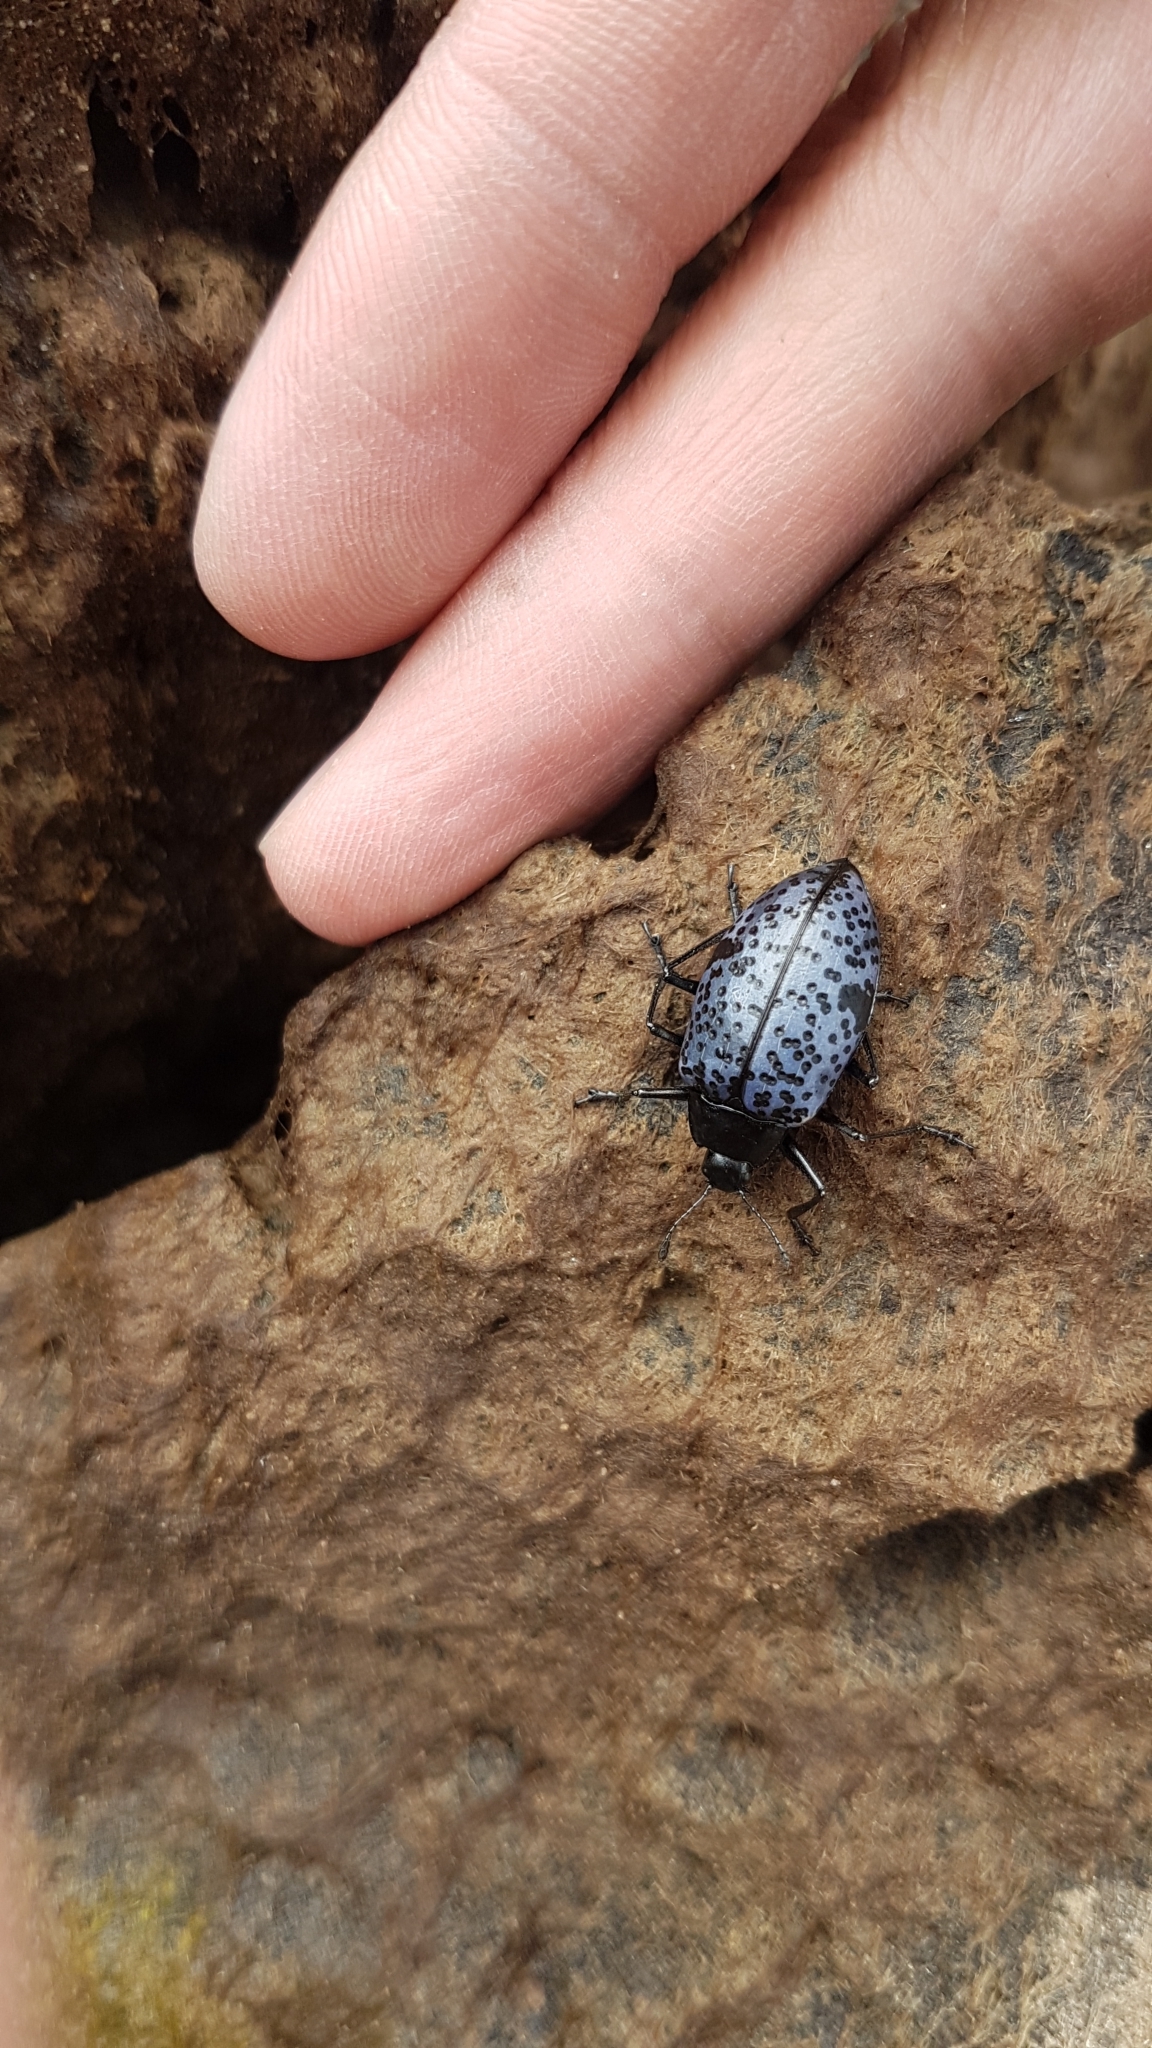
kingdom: Animalia
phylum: Arthropoda
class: Insecta
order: Coleoptera
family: Erotylidae
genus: Gibbifer
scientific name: Gibbifer californicus
